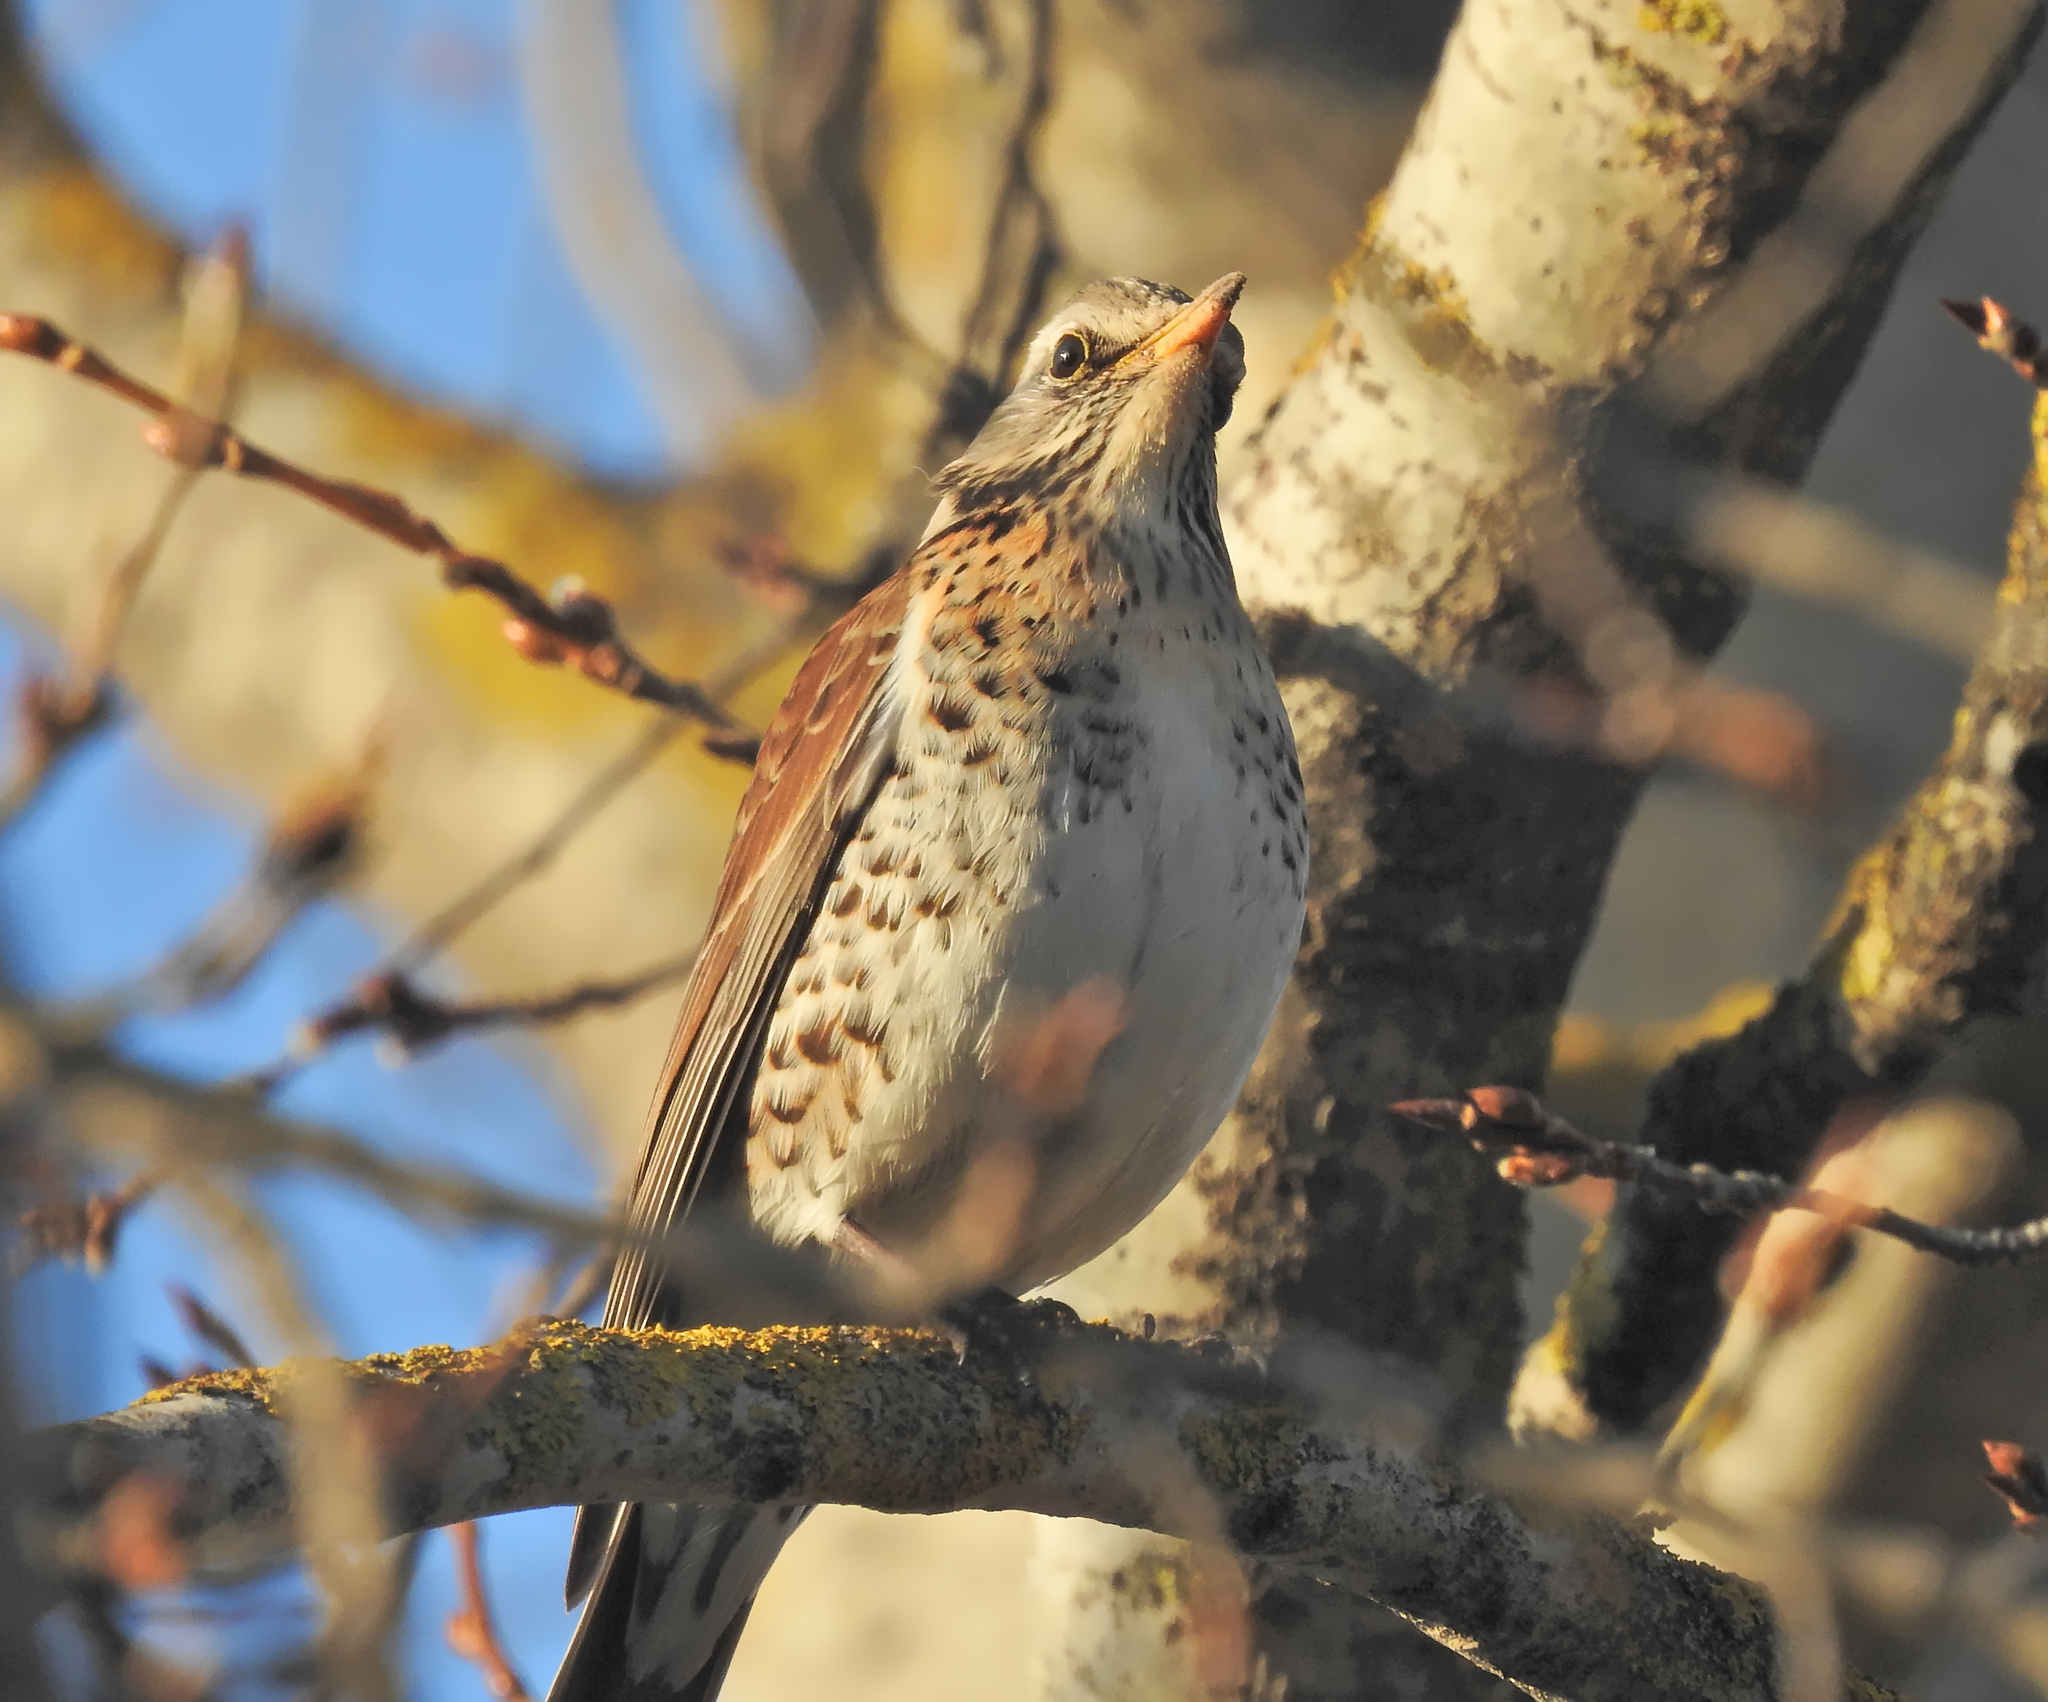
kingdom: Animalia
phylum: Chordata
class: Aves
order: Passeriformes
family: Turdidae
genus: Turdus
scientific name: Turdus pilaris
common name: Fieldfare
